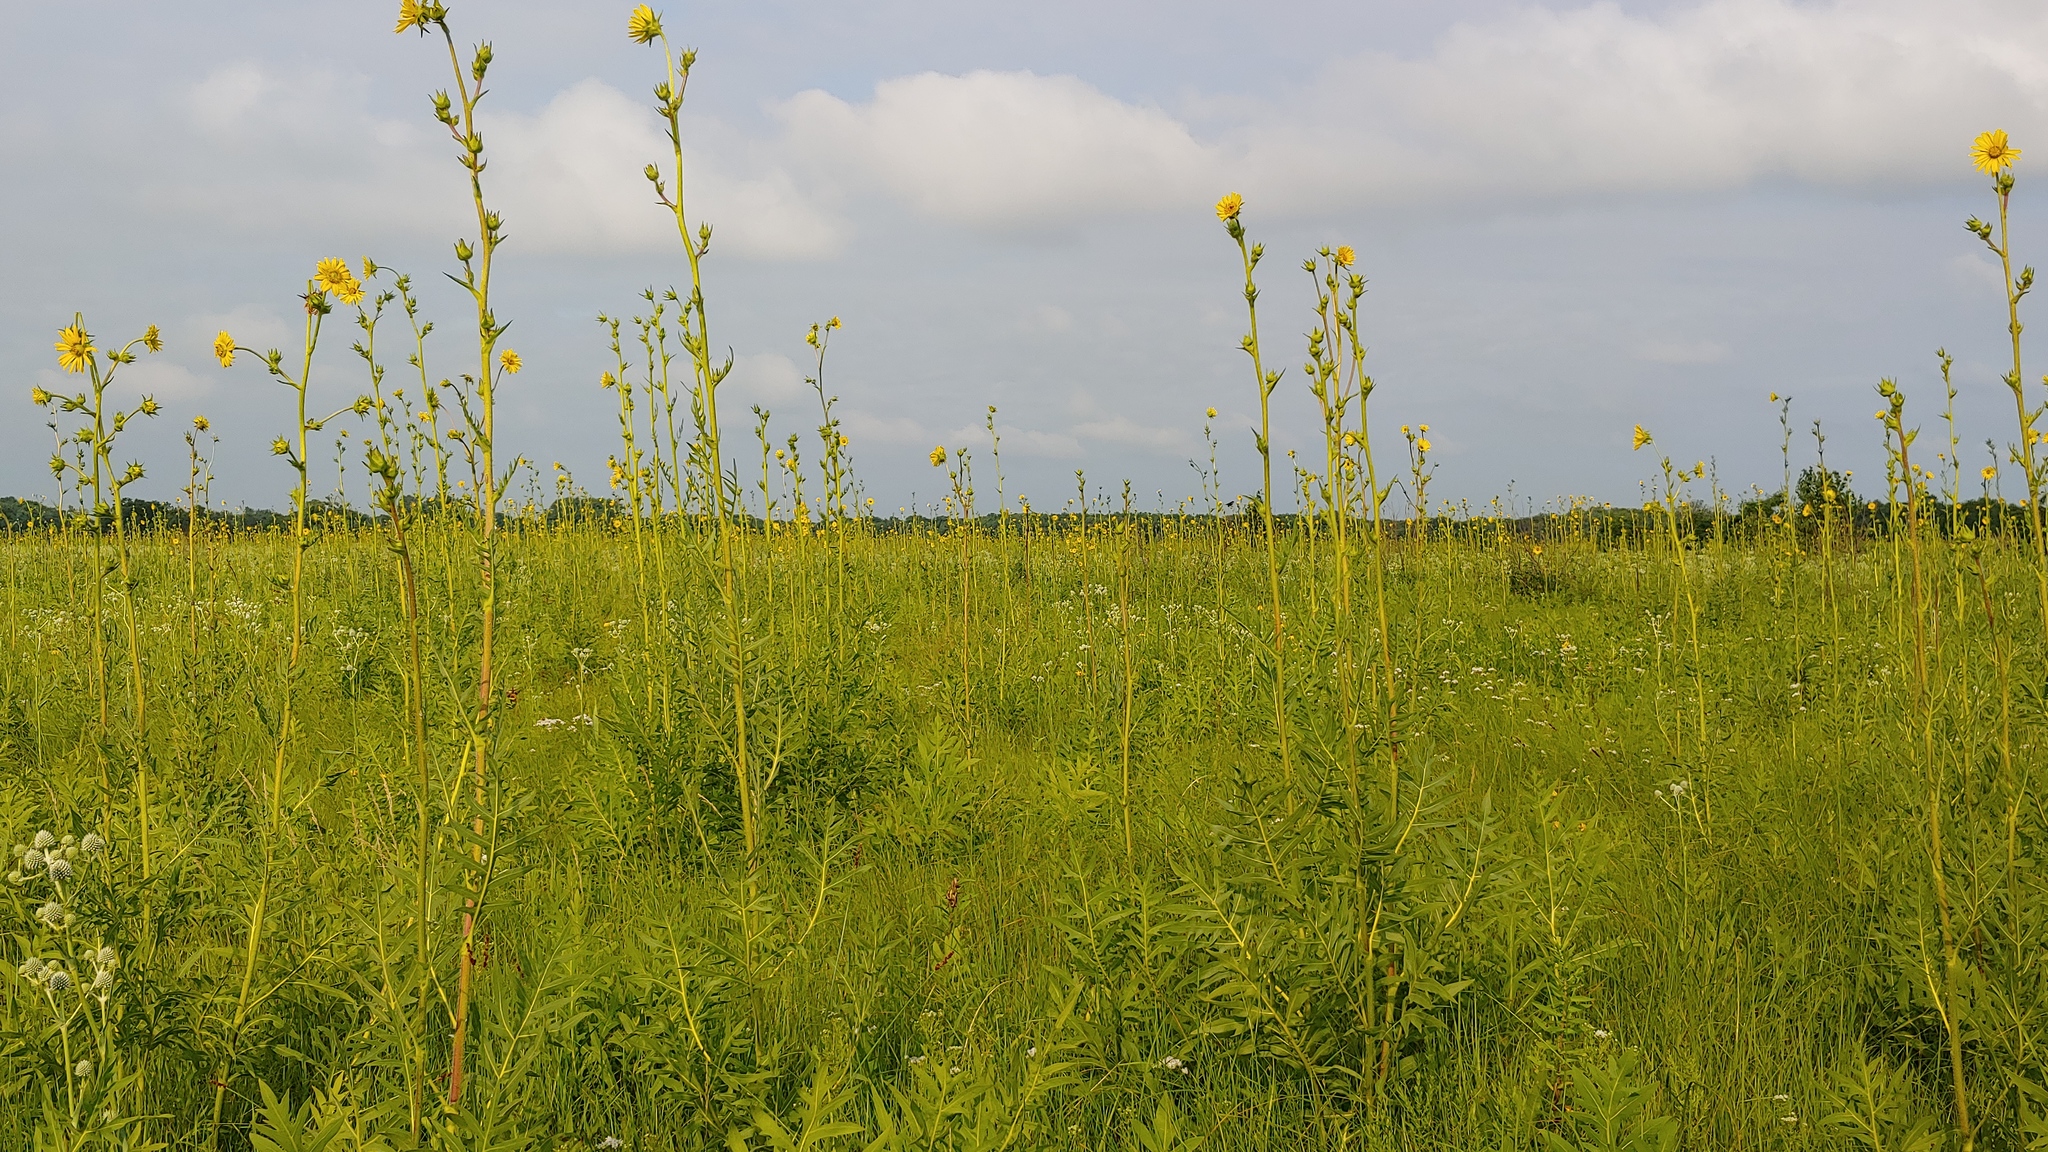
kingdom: Plantae
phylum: Tracheophyta
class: Magnoliopsida
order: Asterales
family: Asteraceae
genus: Silphium
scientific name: Silphium laciniatum
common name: Polarplant
